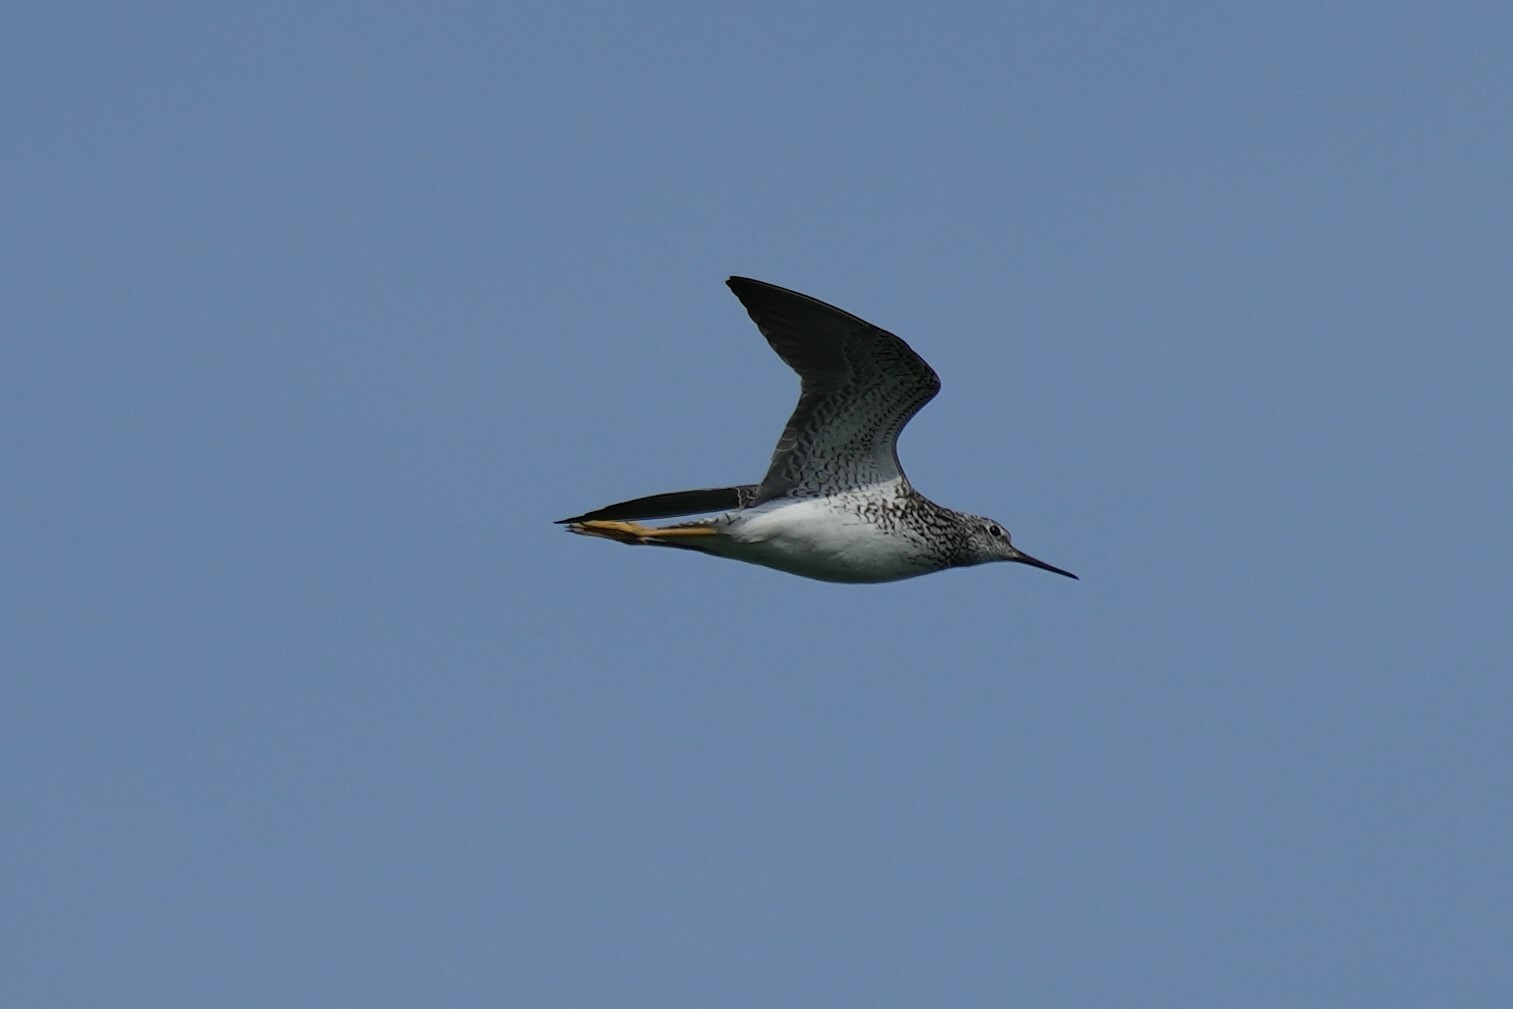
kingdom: Animalia
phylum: Chordata
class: Aves
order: Charadriiformes
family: Scolopacidae
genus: Tringa
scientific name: Tringa flavipes
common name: Lesser yellowlegs
